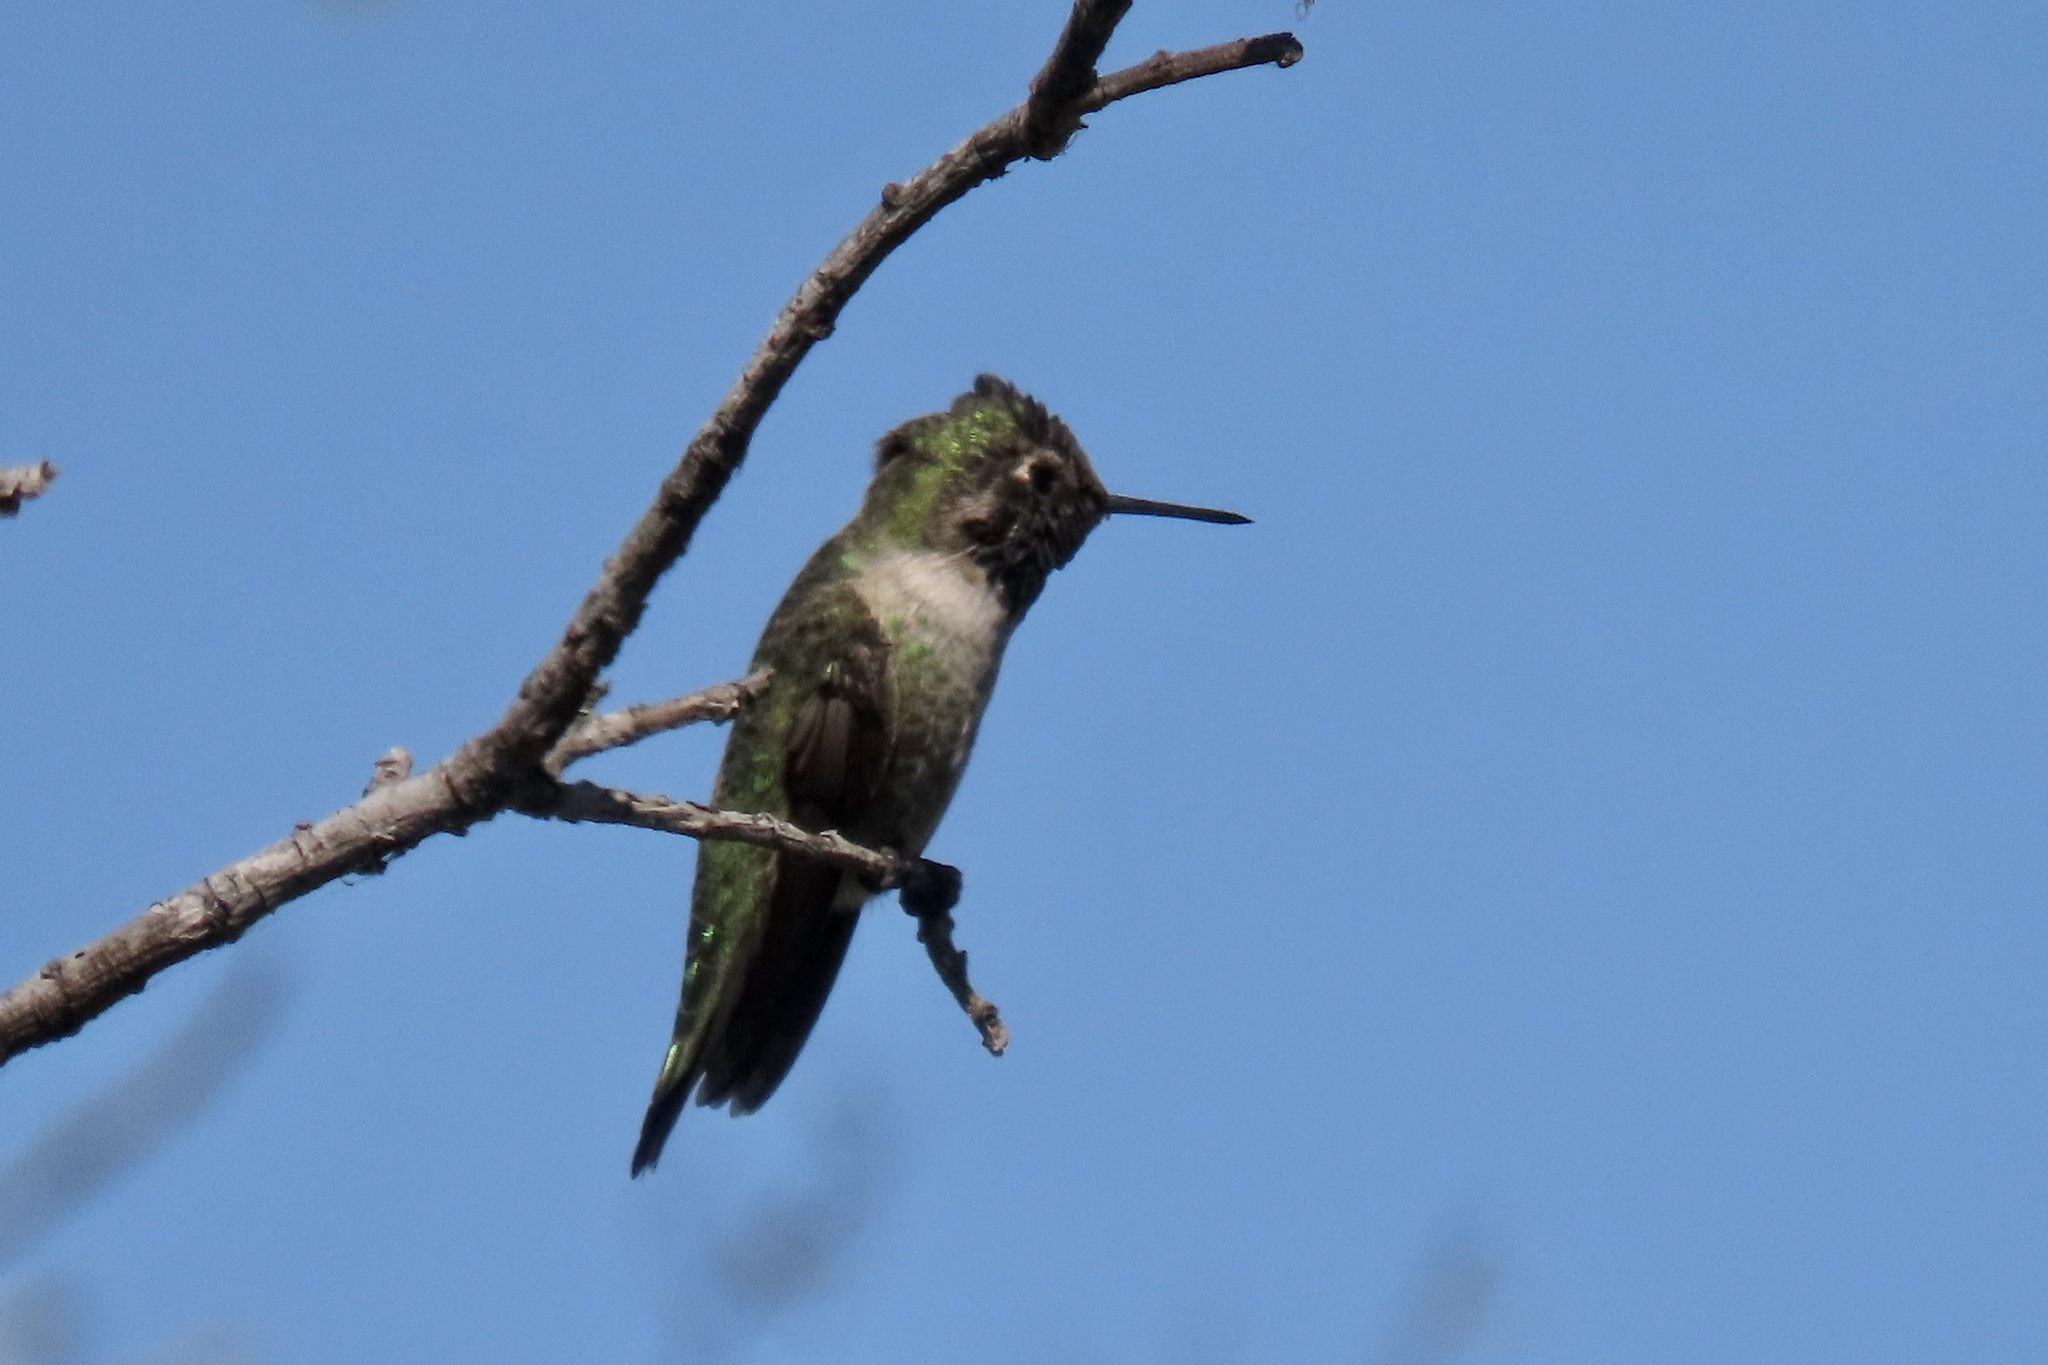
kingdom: Animalia
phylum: Chordata
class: Aves
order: Apodiformes
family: Trochilidae
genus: Calypte
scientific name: Calypte anna
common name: Anna's hummingbird
